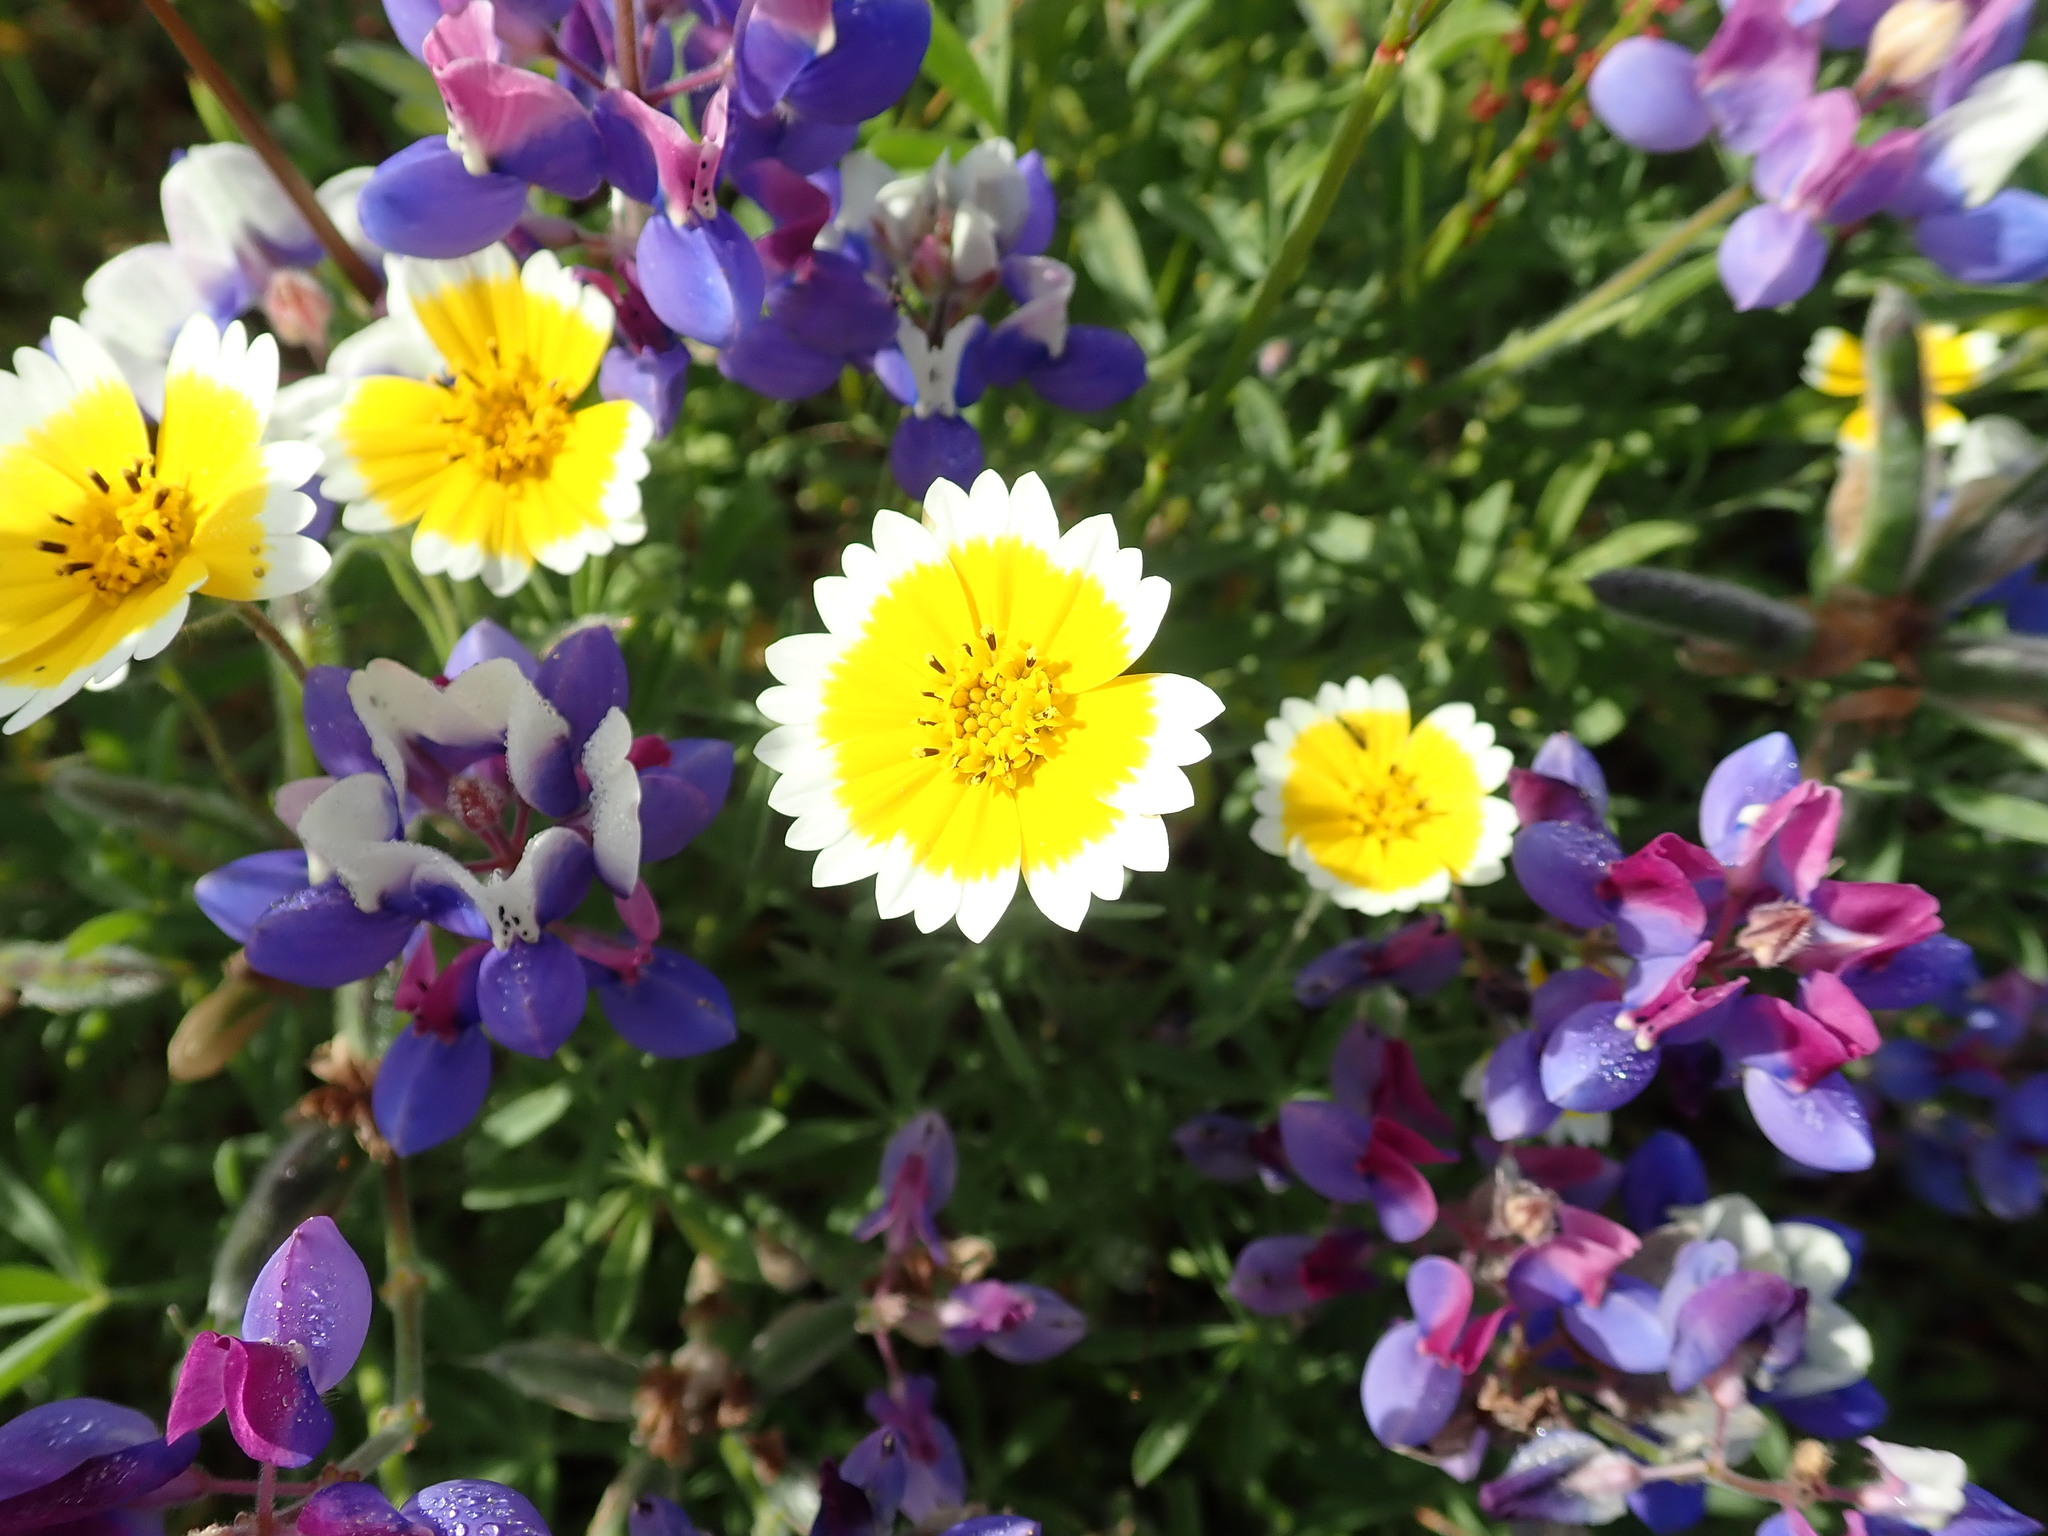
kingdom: Plantae
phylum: Tracheophyta
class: Magnoliopsida
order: Asterales
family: Asteraceae
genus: Layia
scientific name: Layia platyglossa
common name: Tidy-tips
